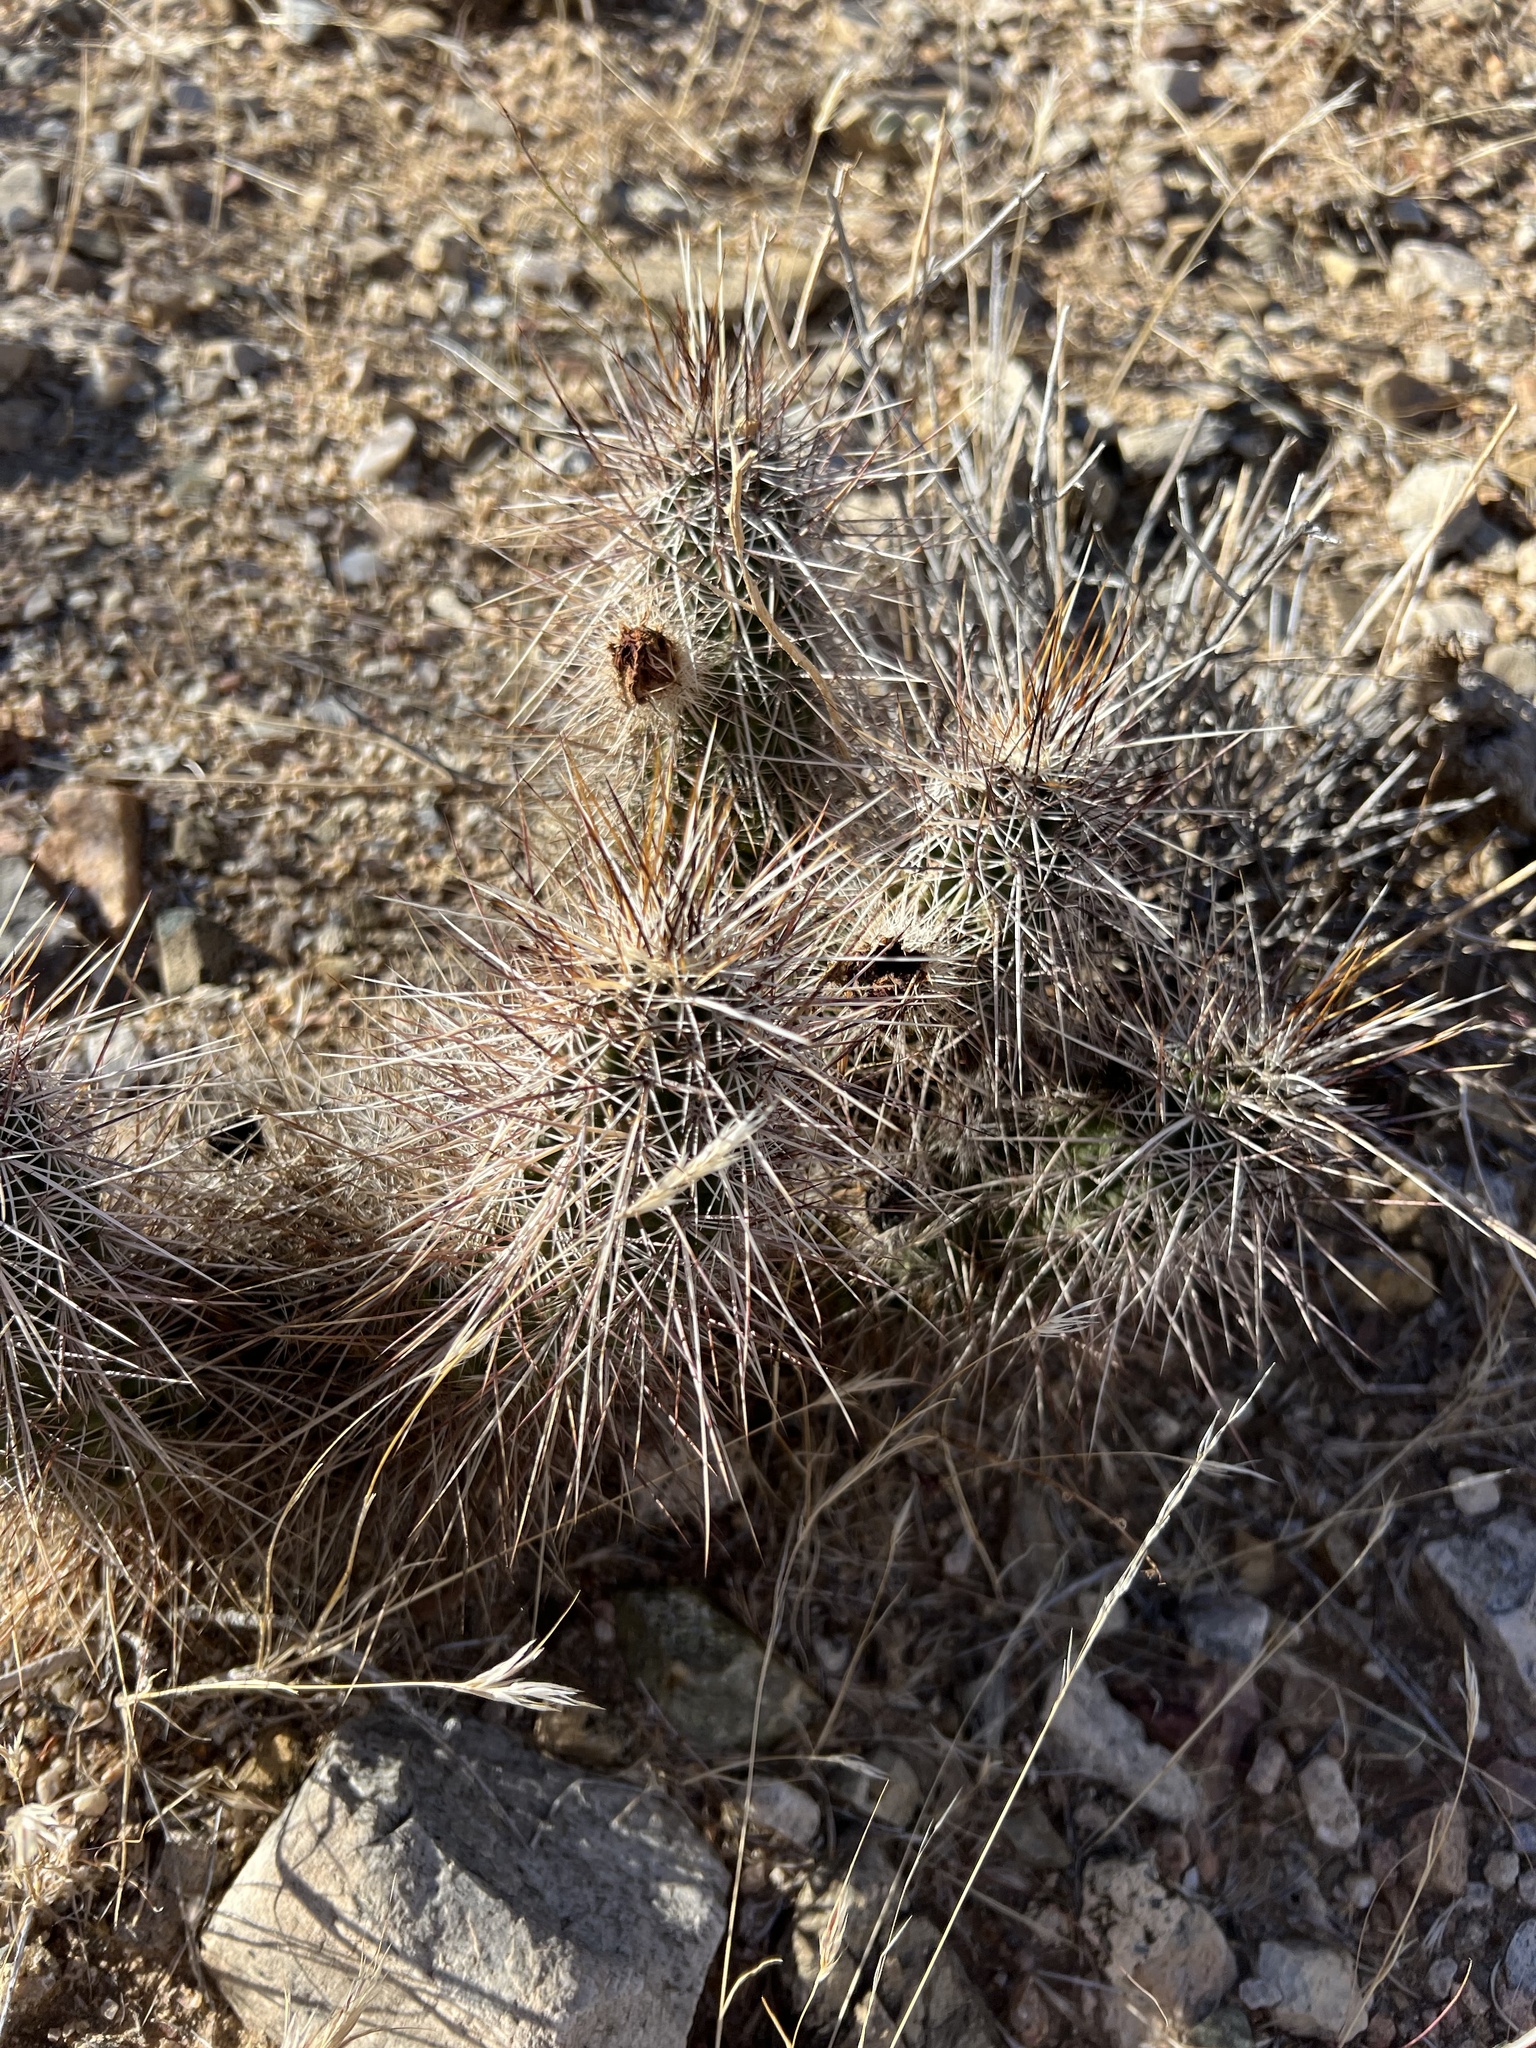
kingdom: Plantae
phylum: Tracheophyta
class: Magnoliopsida
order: Caryophyllales
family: Cactaceae
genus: Echinocereus
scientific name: Echinocereus engelmannii
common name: Engelmann's hedgehog cactus
